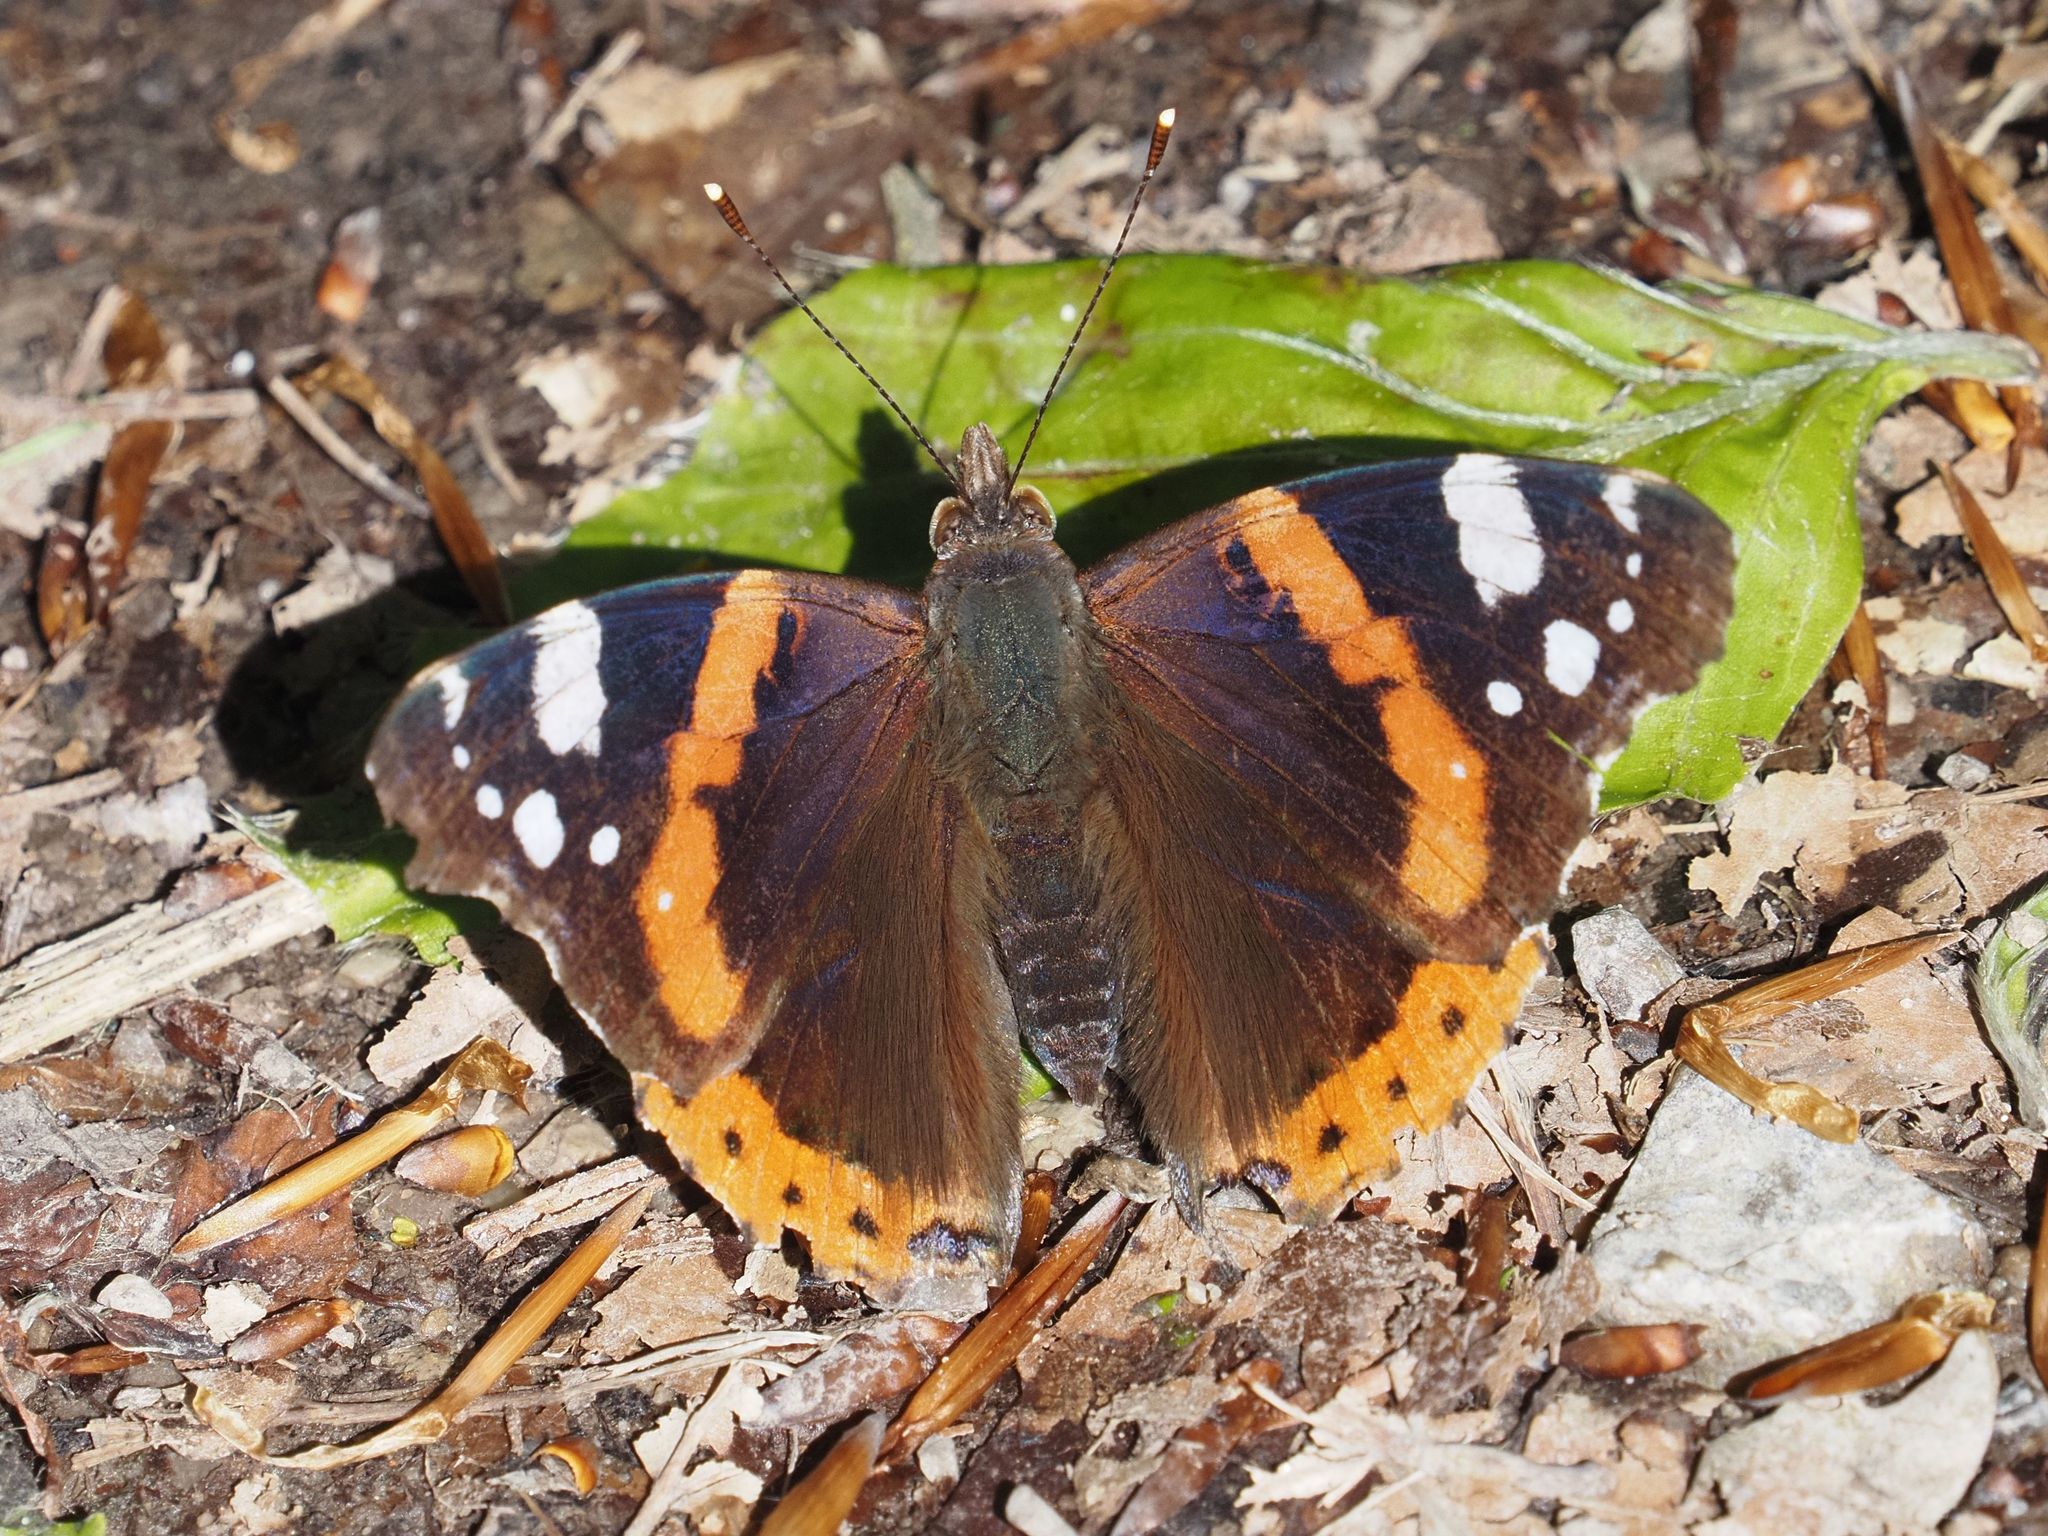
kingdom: Animalia
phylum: Arthropoda
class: Insecta
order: Lepidoptera
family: Nymphalidae
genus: Vanessa
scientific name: Vanessa atalanta
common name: Red admiral
